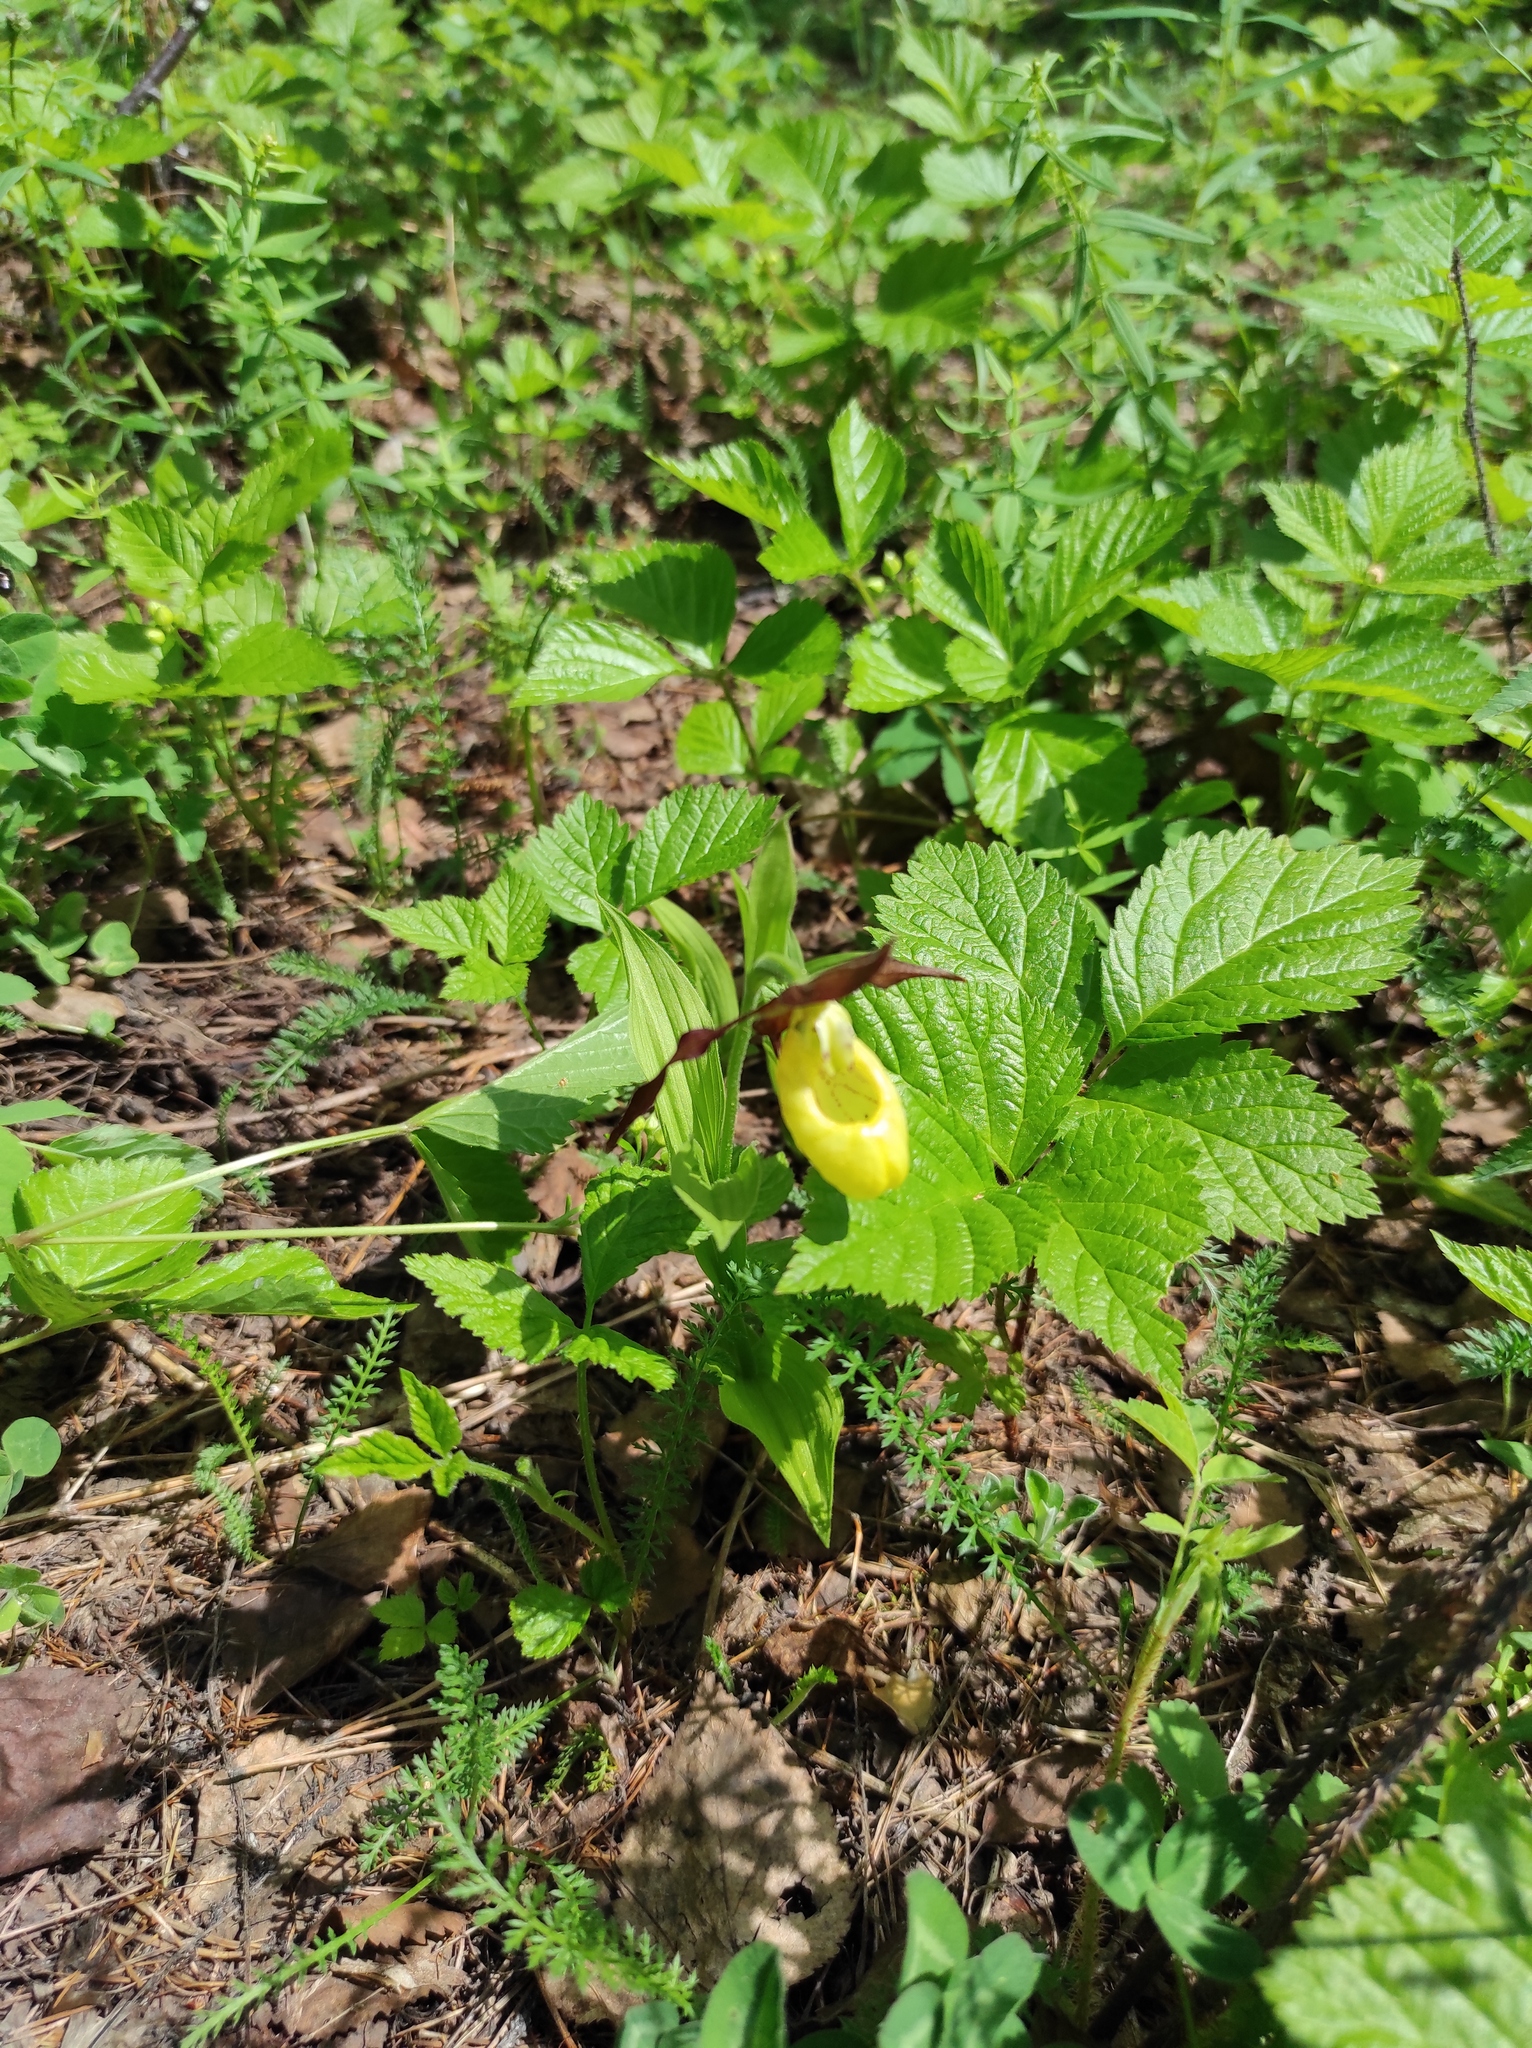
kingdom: Plantae
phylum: Tracheophyta
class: Liliopsida
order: Asparagales
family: Orchidaceae
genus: Cypripedium
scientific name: Cypripedium calceolus
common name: Lady's-slipper
